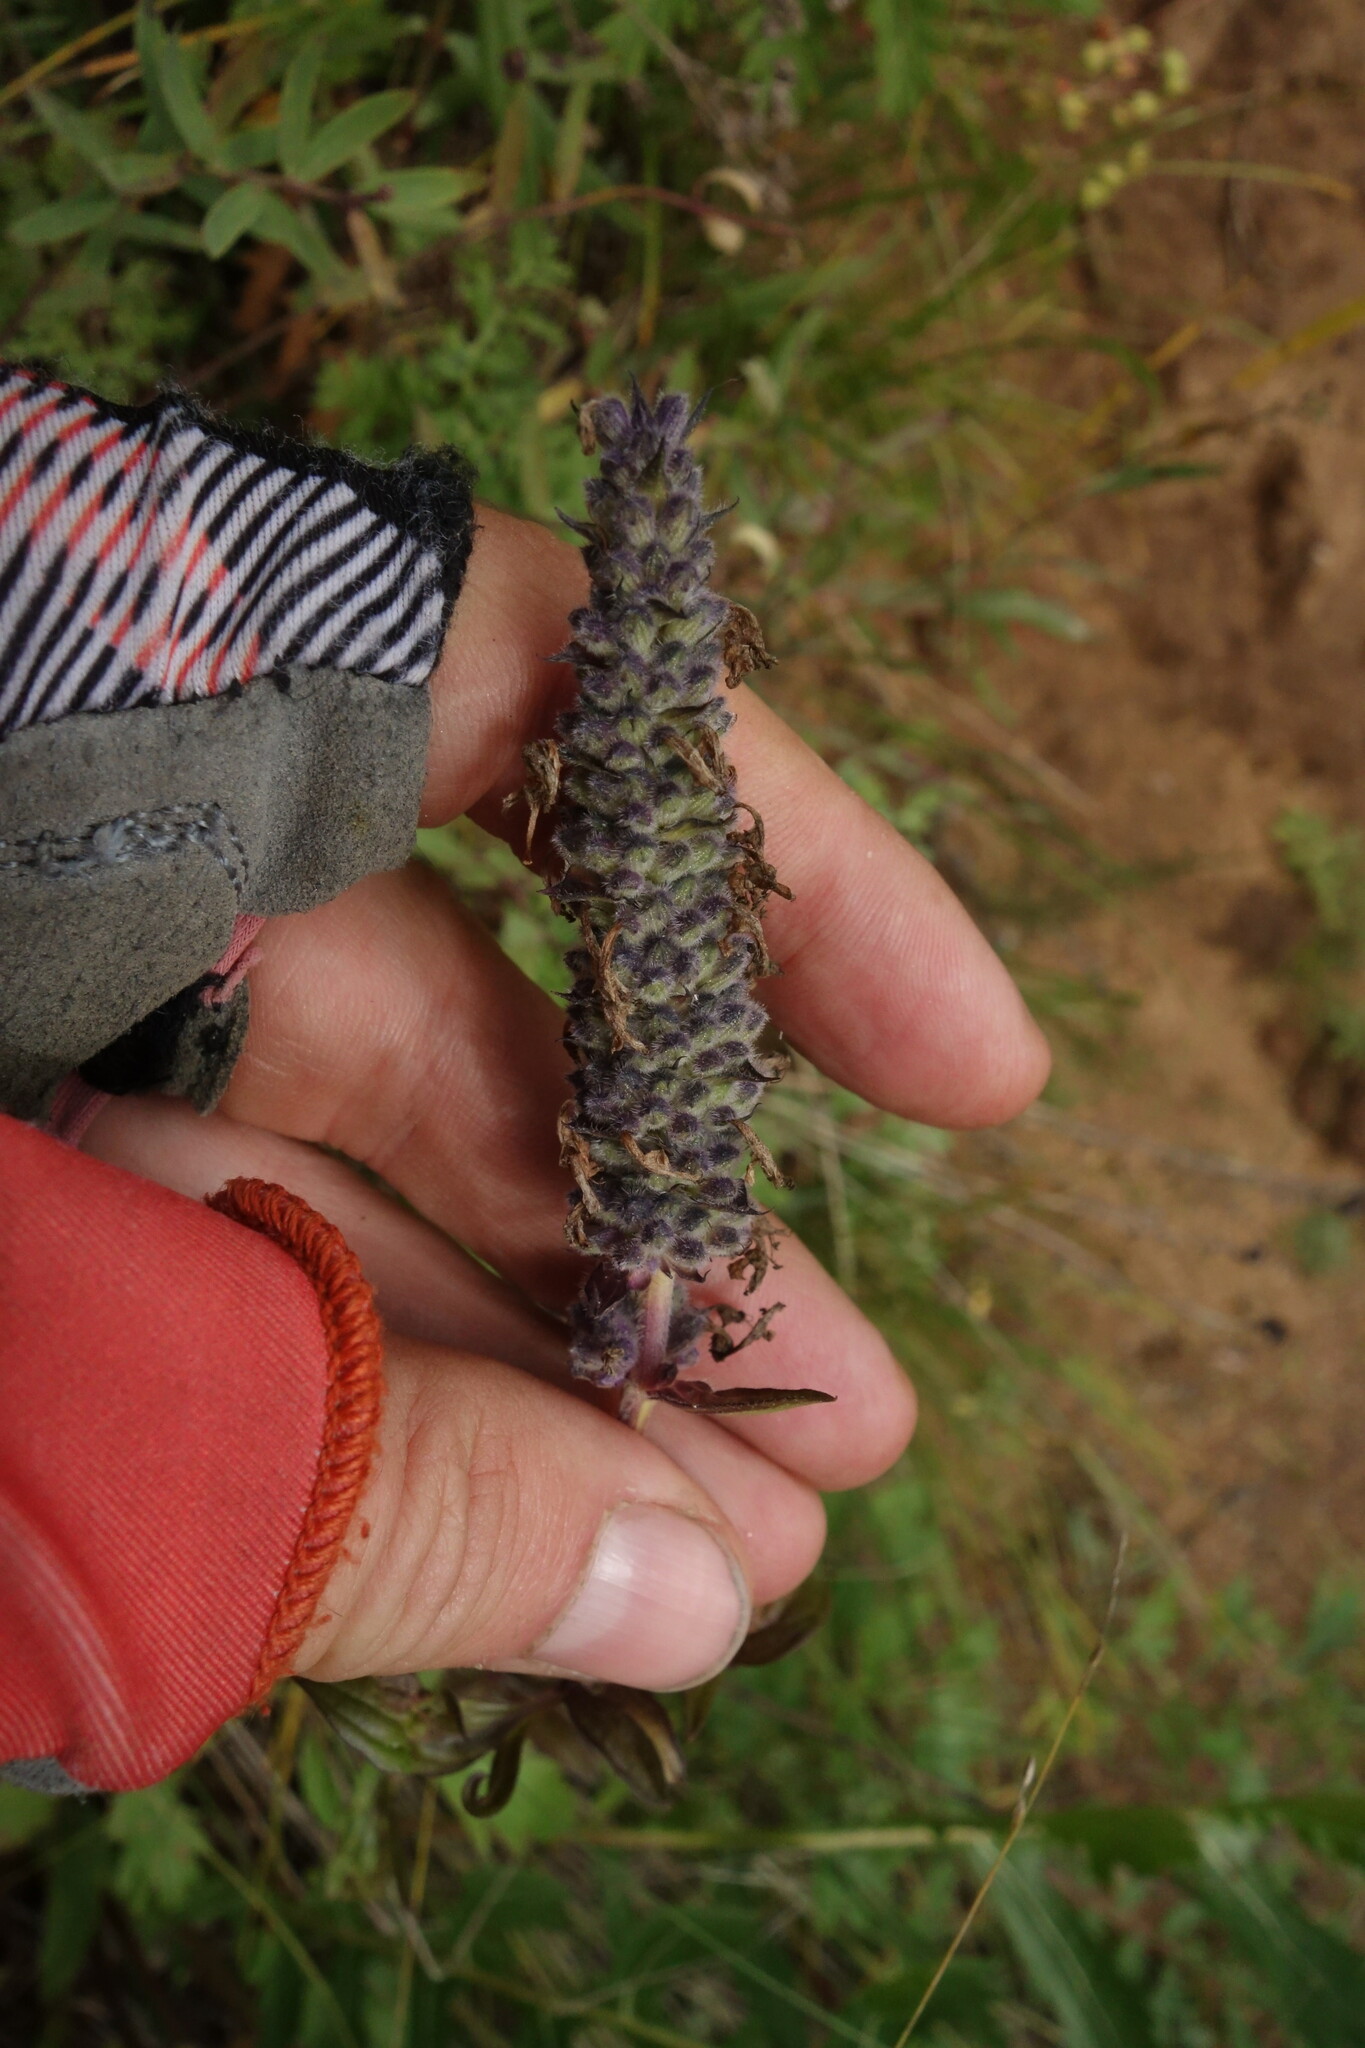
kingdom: Plantae
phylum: Tracheophyta
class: Magnoliopsida
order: Lamiales
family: Lamiaceae
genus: Nepeta
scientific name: Nepeta multifida
